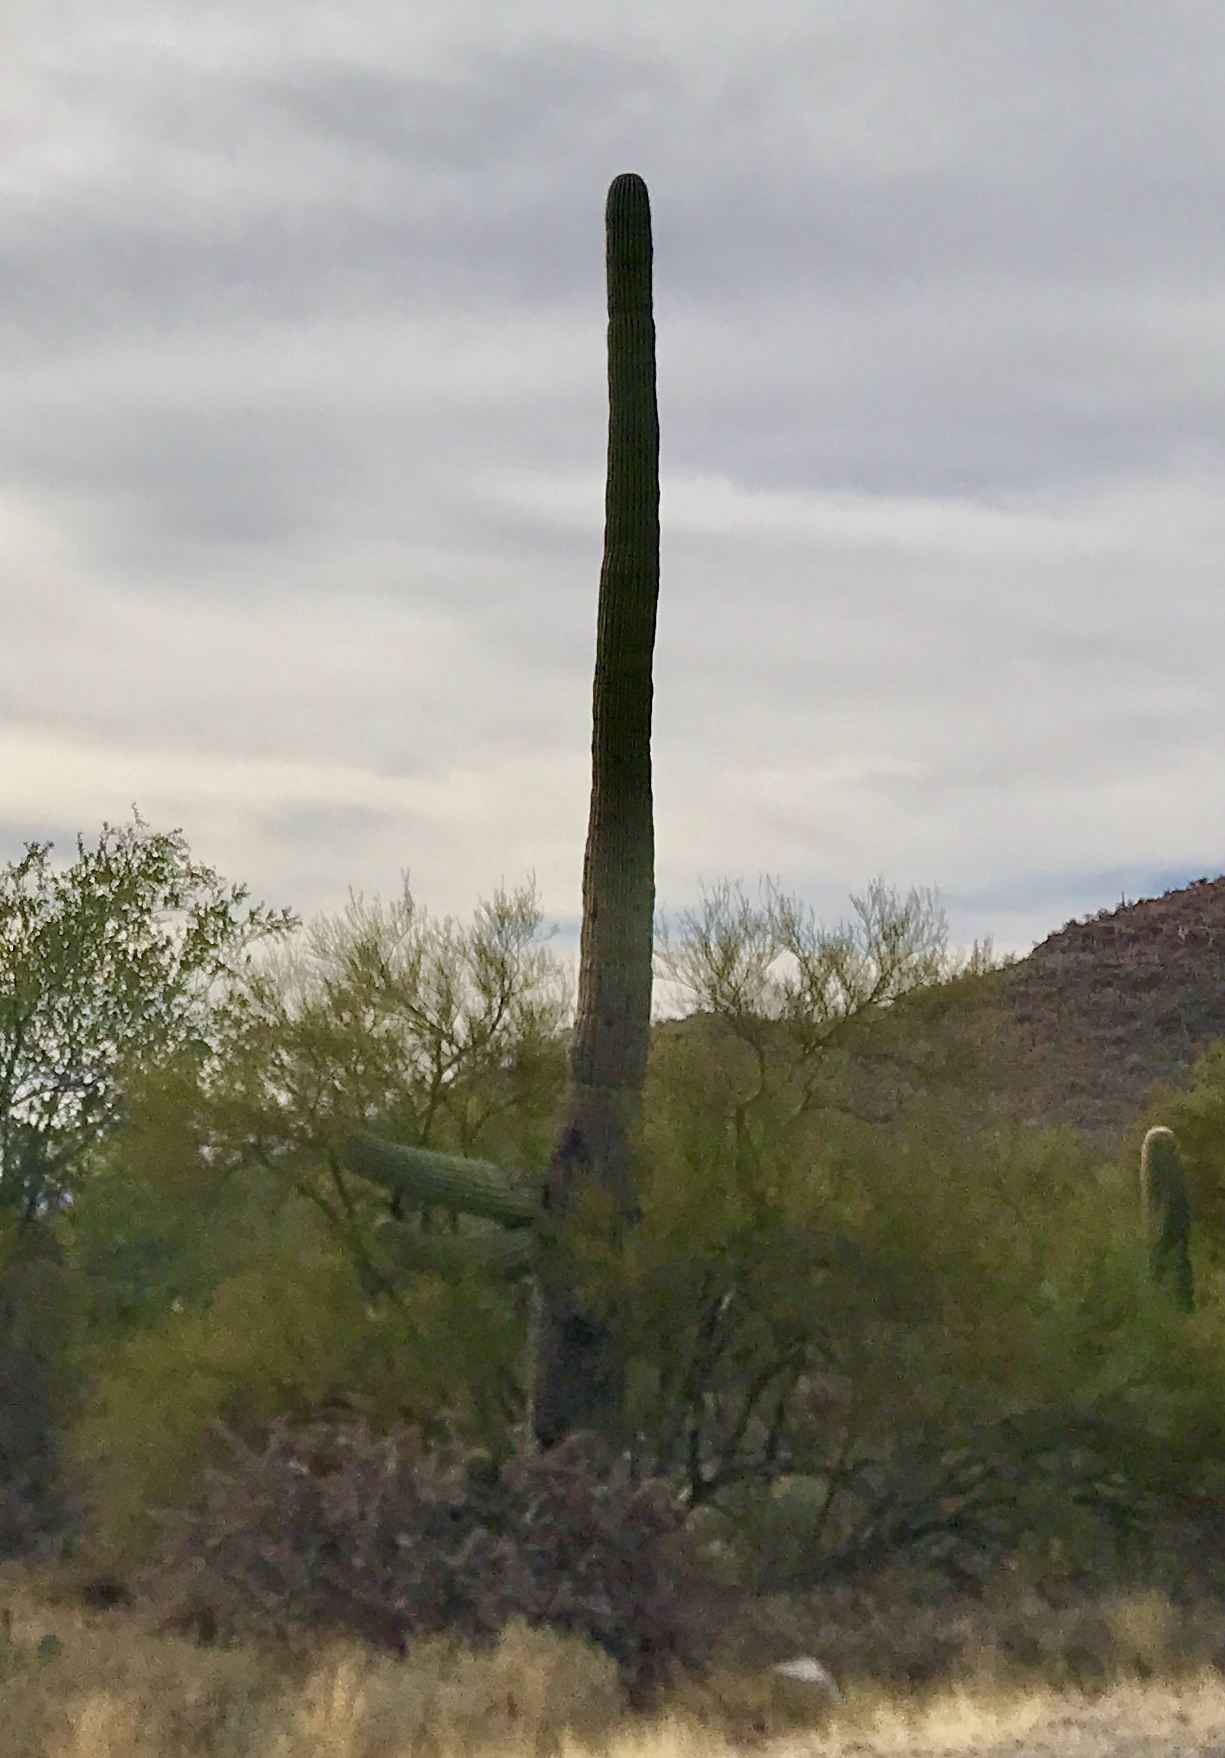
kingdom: Plantae
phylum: Tracheophyta
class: Magnoliopsida
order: Caryophyllales
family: Cactaceae
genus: Carnegiea
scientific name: Carnegiea gigantea
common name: Saguaro
